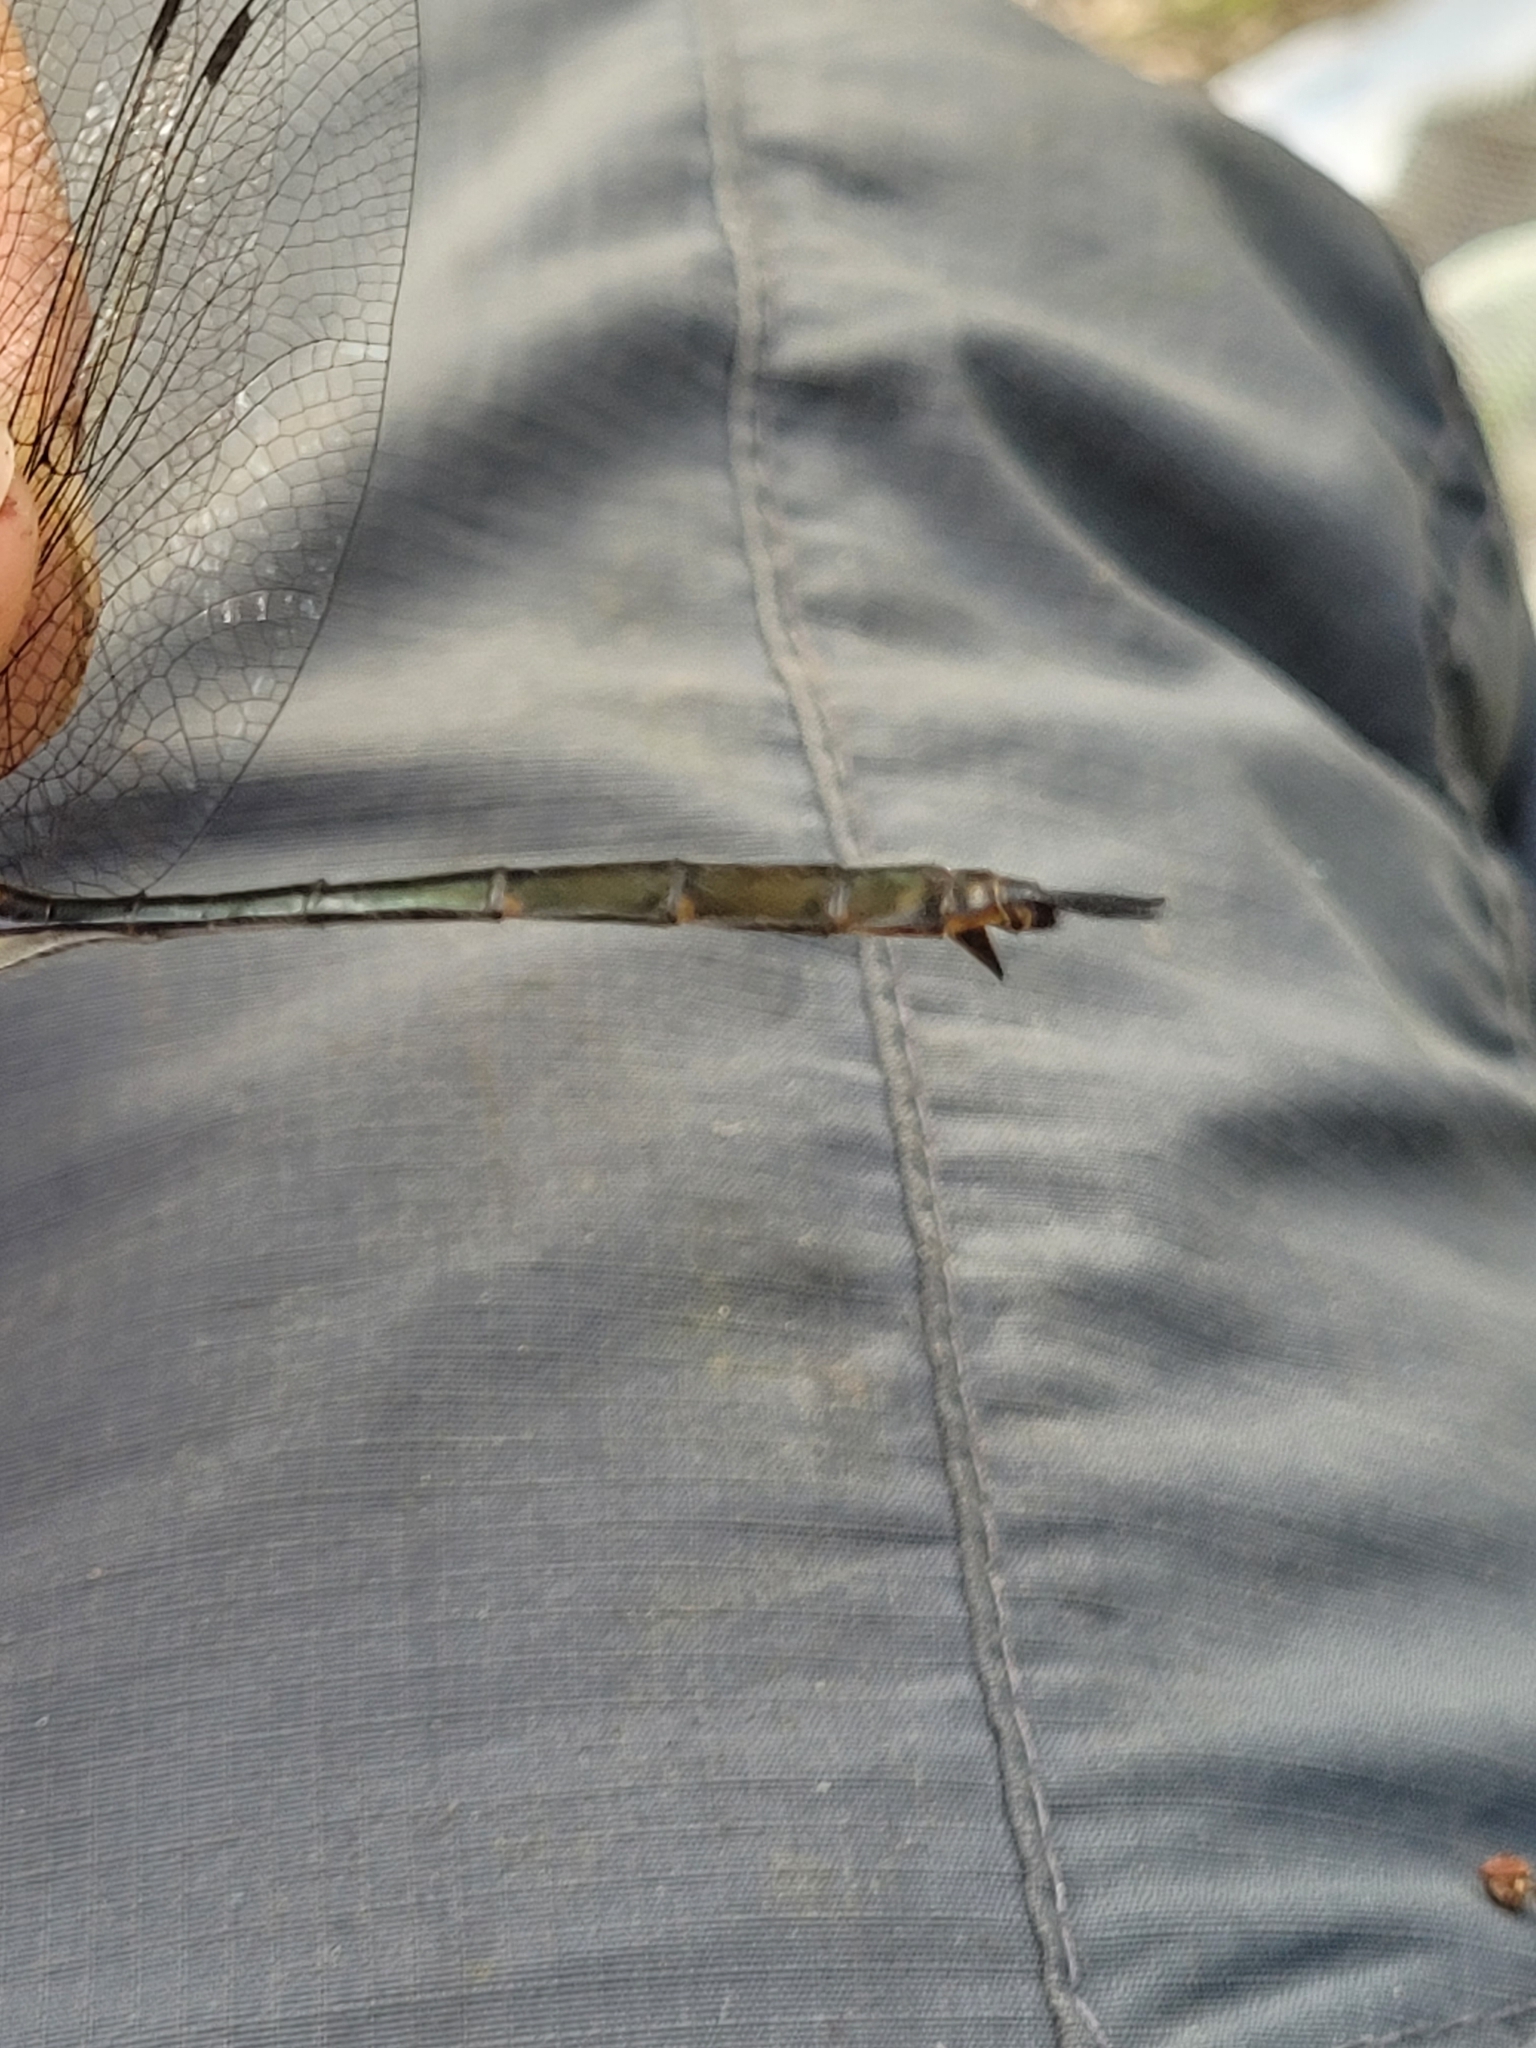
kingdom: Animalia
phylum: Arthropoda
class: Insecta
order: Odonata
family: Corduliidae
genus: Somatochlora
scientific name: Somatochlora tenebrosa
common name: Clamp-tipped emerald
